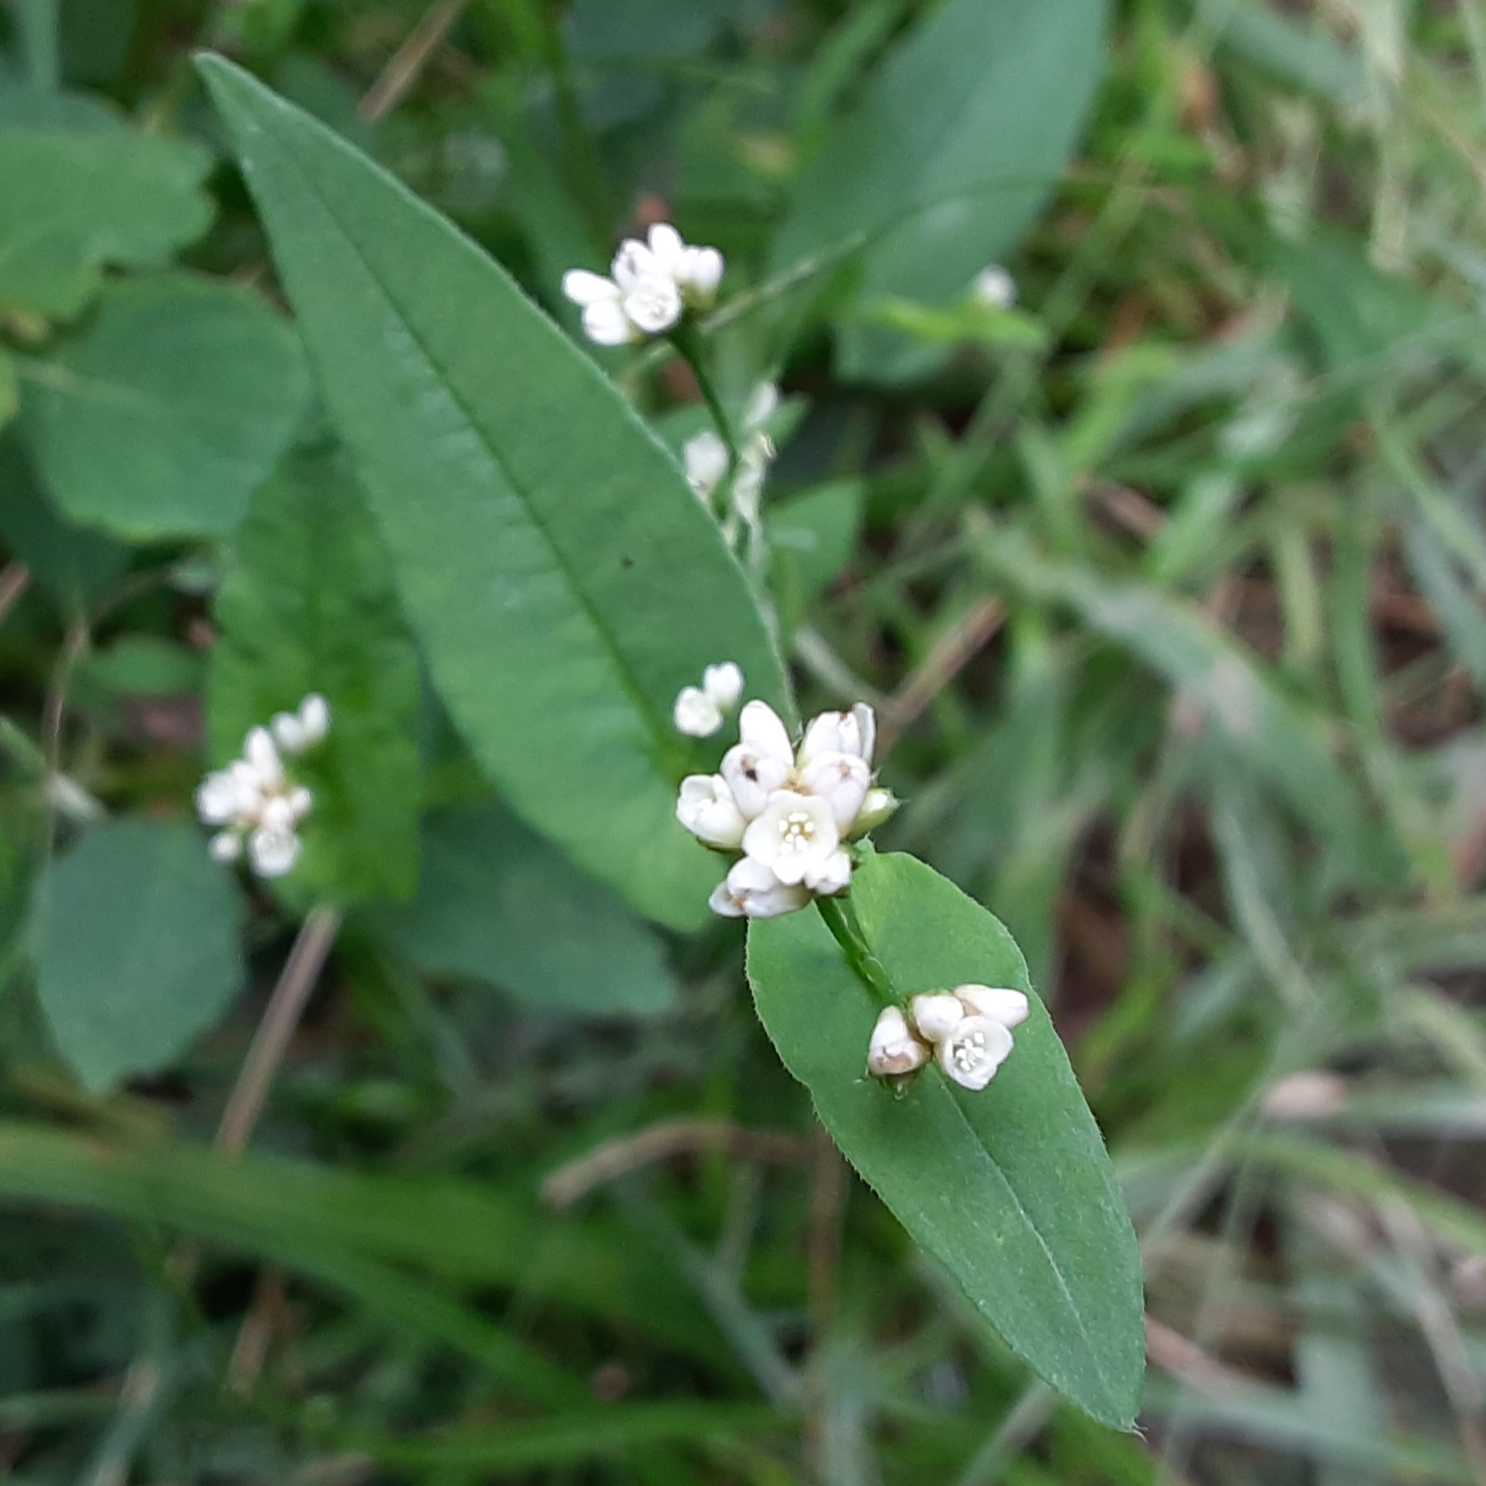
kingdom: Plantae
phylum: Tracheophyta
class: Magnoliopsida
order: Caryophyllales
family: Polygonaceae
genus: Persicaria
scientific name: Persicaria sagittata
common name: American tearthumb
